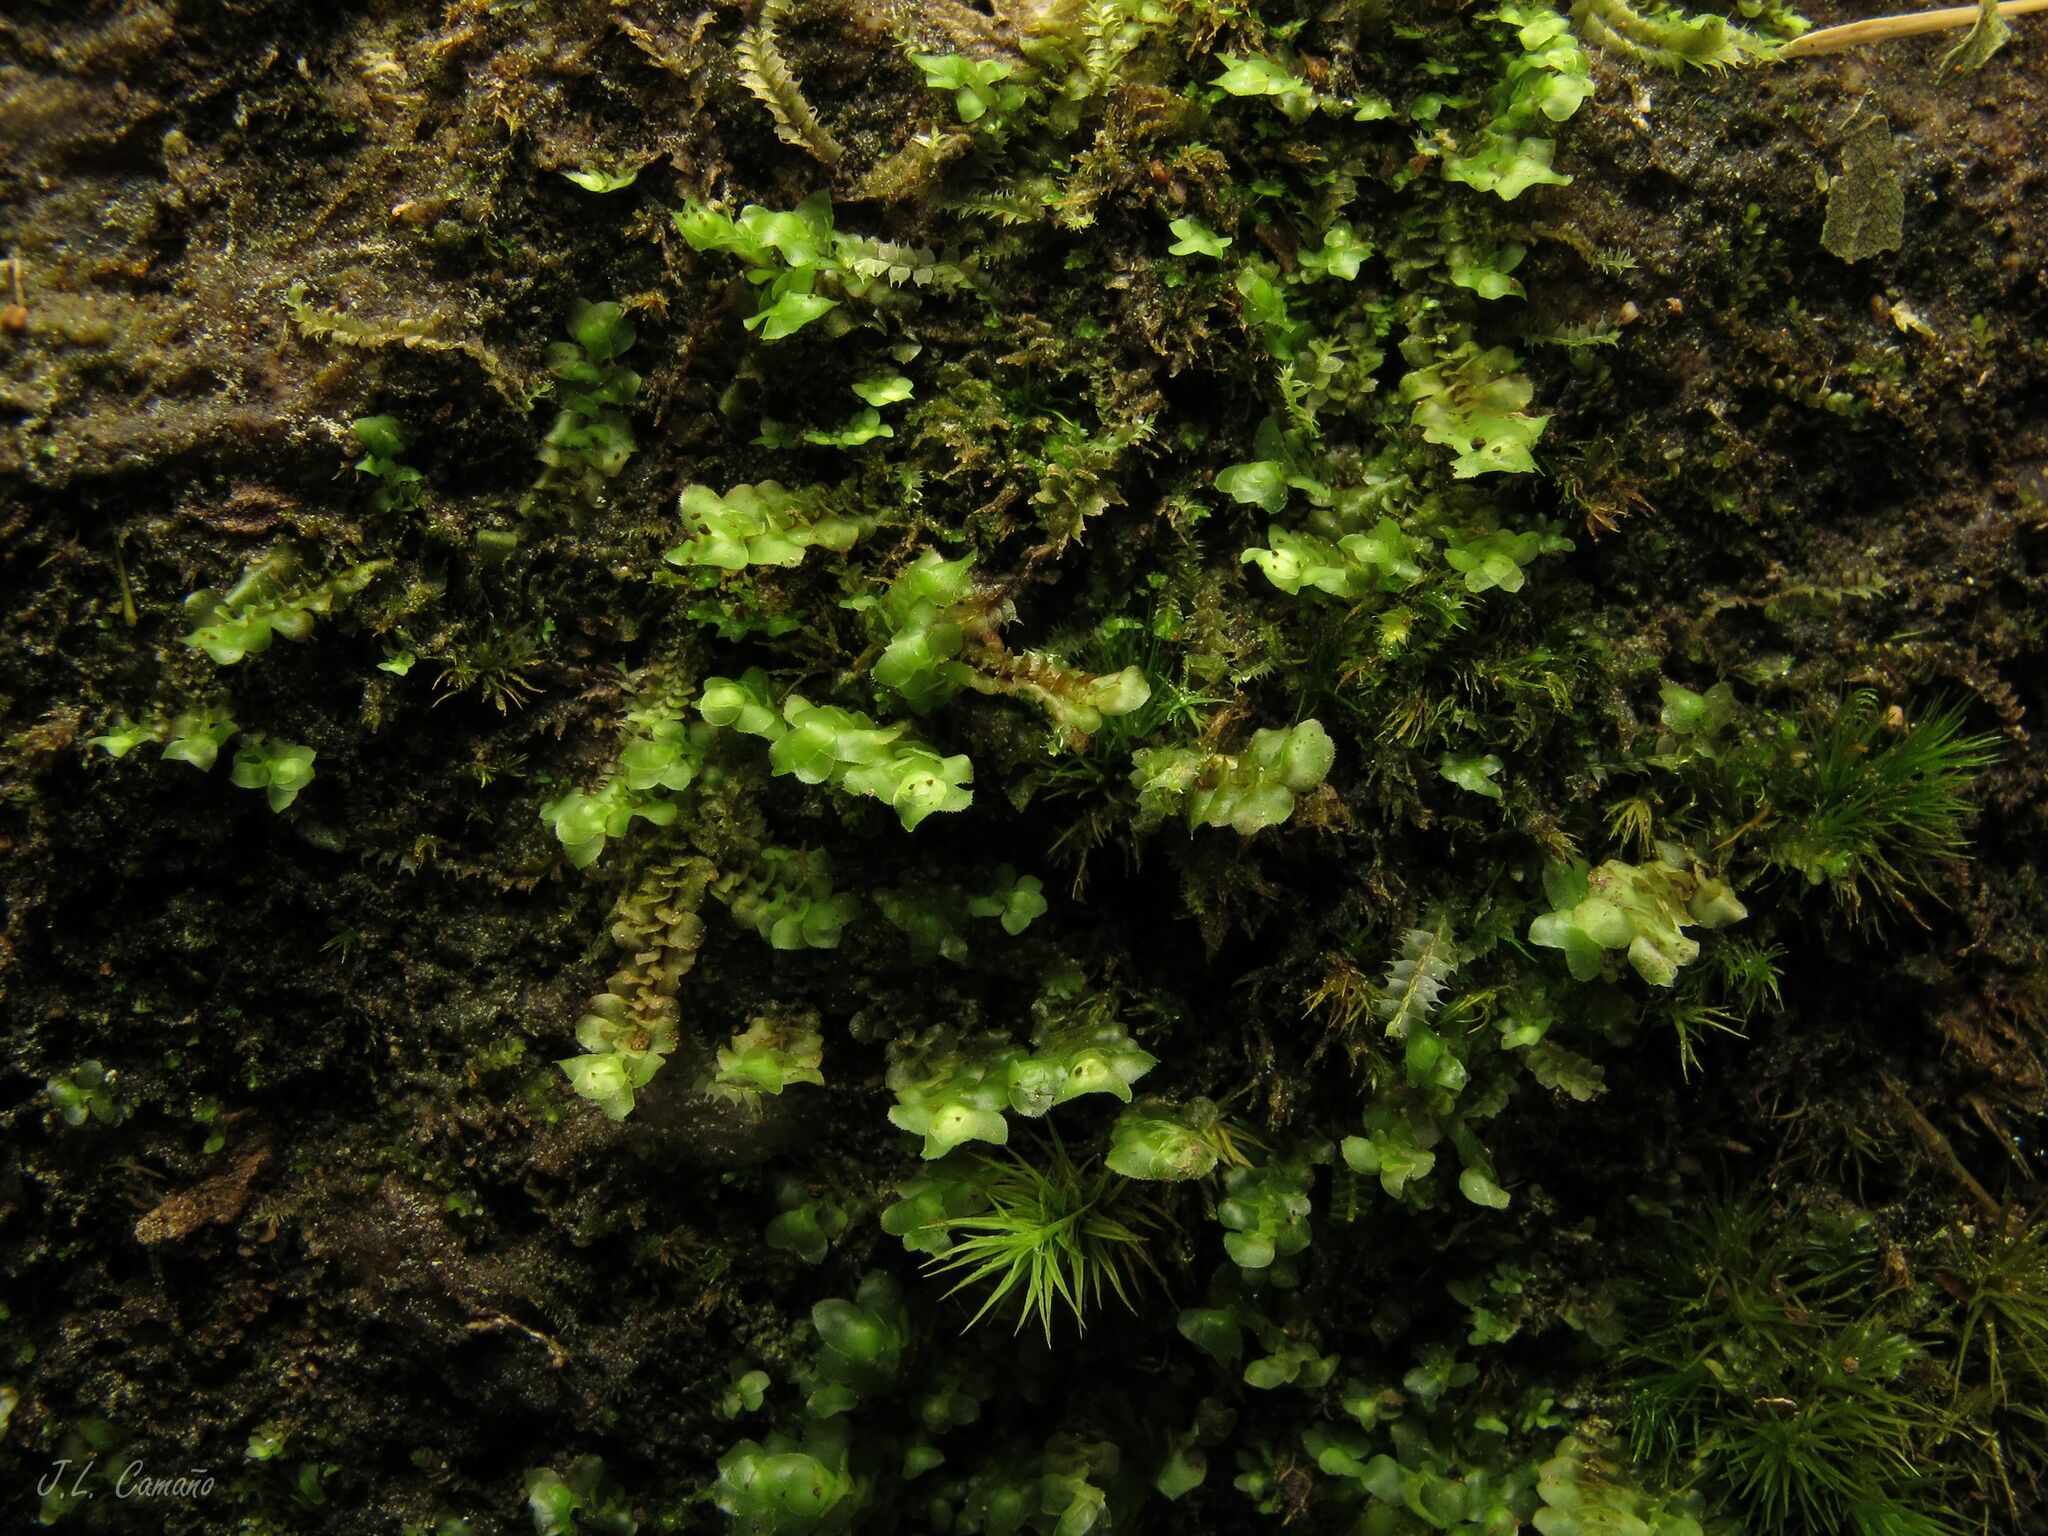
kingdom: Plantae
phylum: Marchantiophyta
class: Jungermanniopsida
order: Jungermanniales
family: Scapaniaceae
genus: Scapania
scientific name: Scapania nemorea
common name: Grove earwort
